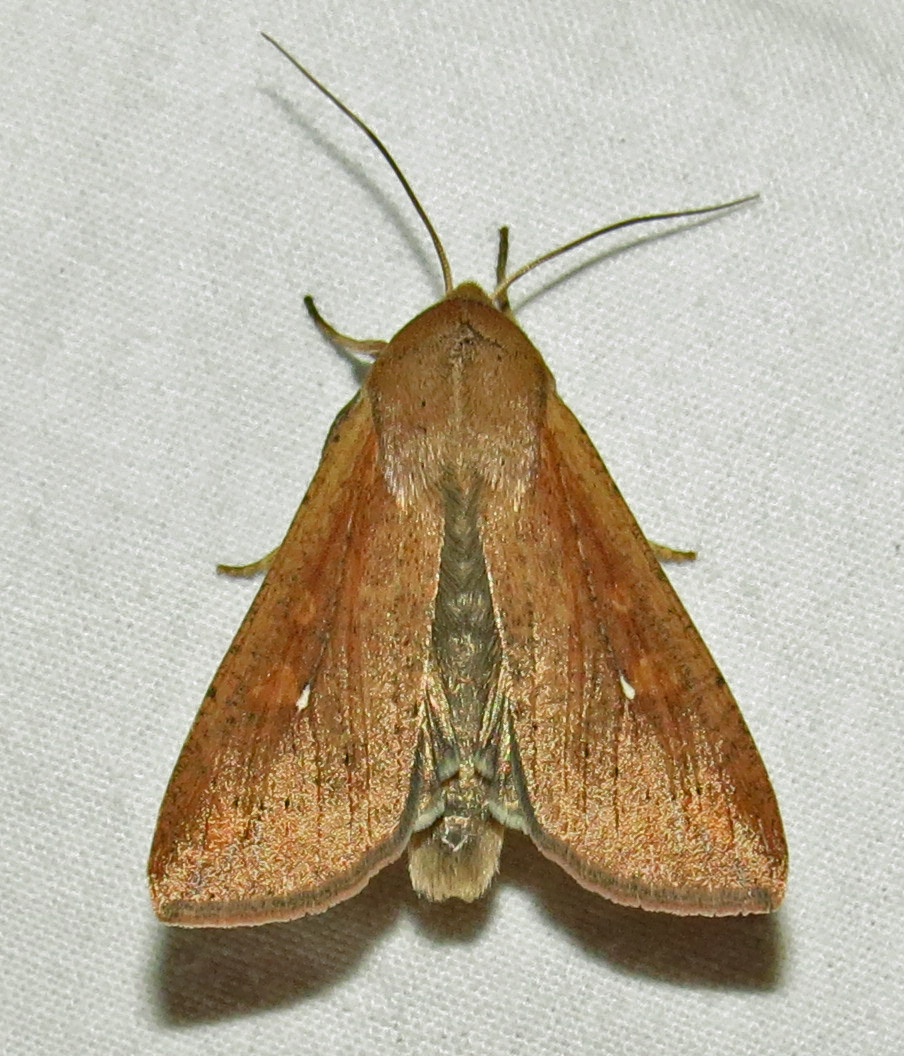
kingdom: Animalia
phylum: Arthropoda
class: Insecta
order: Lepidoptera
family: Noctuidae
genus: Mythimna
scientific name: Mythimna unipuncta
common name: White-speck
